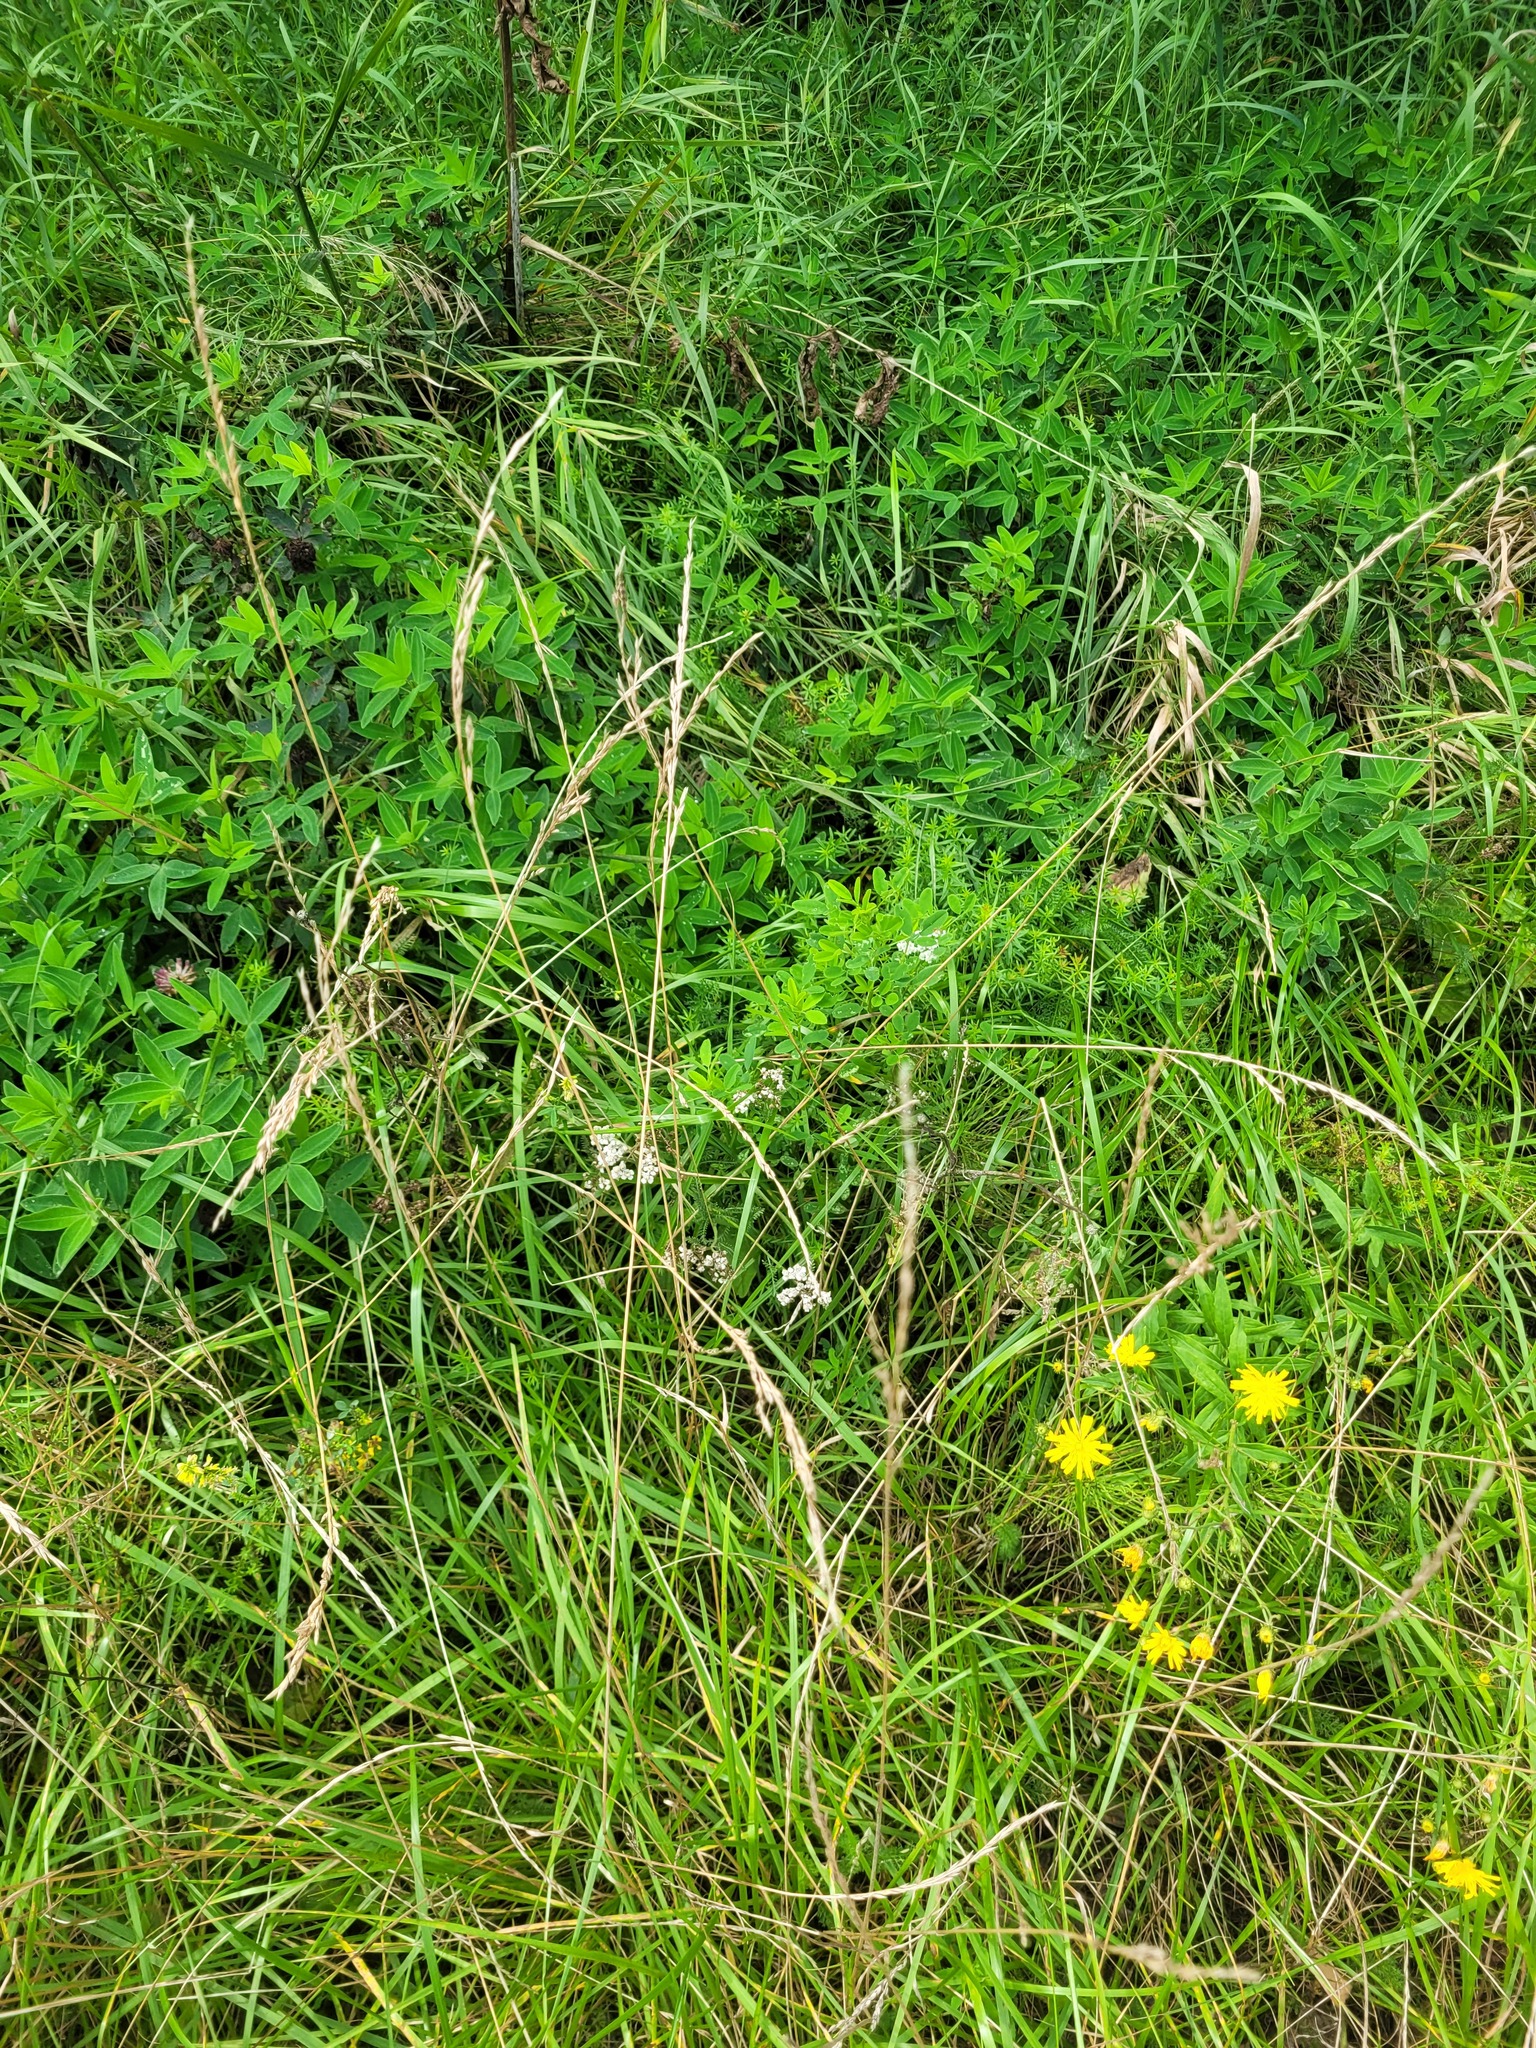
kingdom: Plantae
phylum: Tracheophyta
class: Magnoliopsida
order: Asterales
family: Asteraceae
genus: Achillea
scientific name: Achillea millefolium
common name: Yarrow
